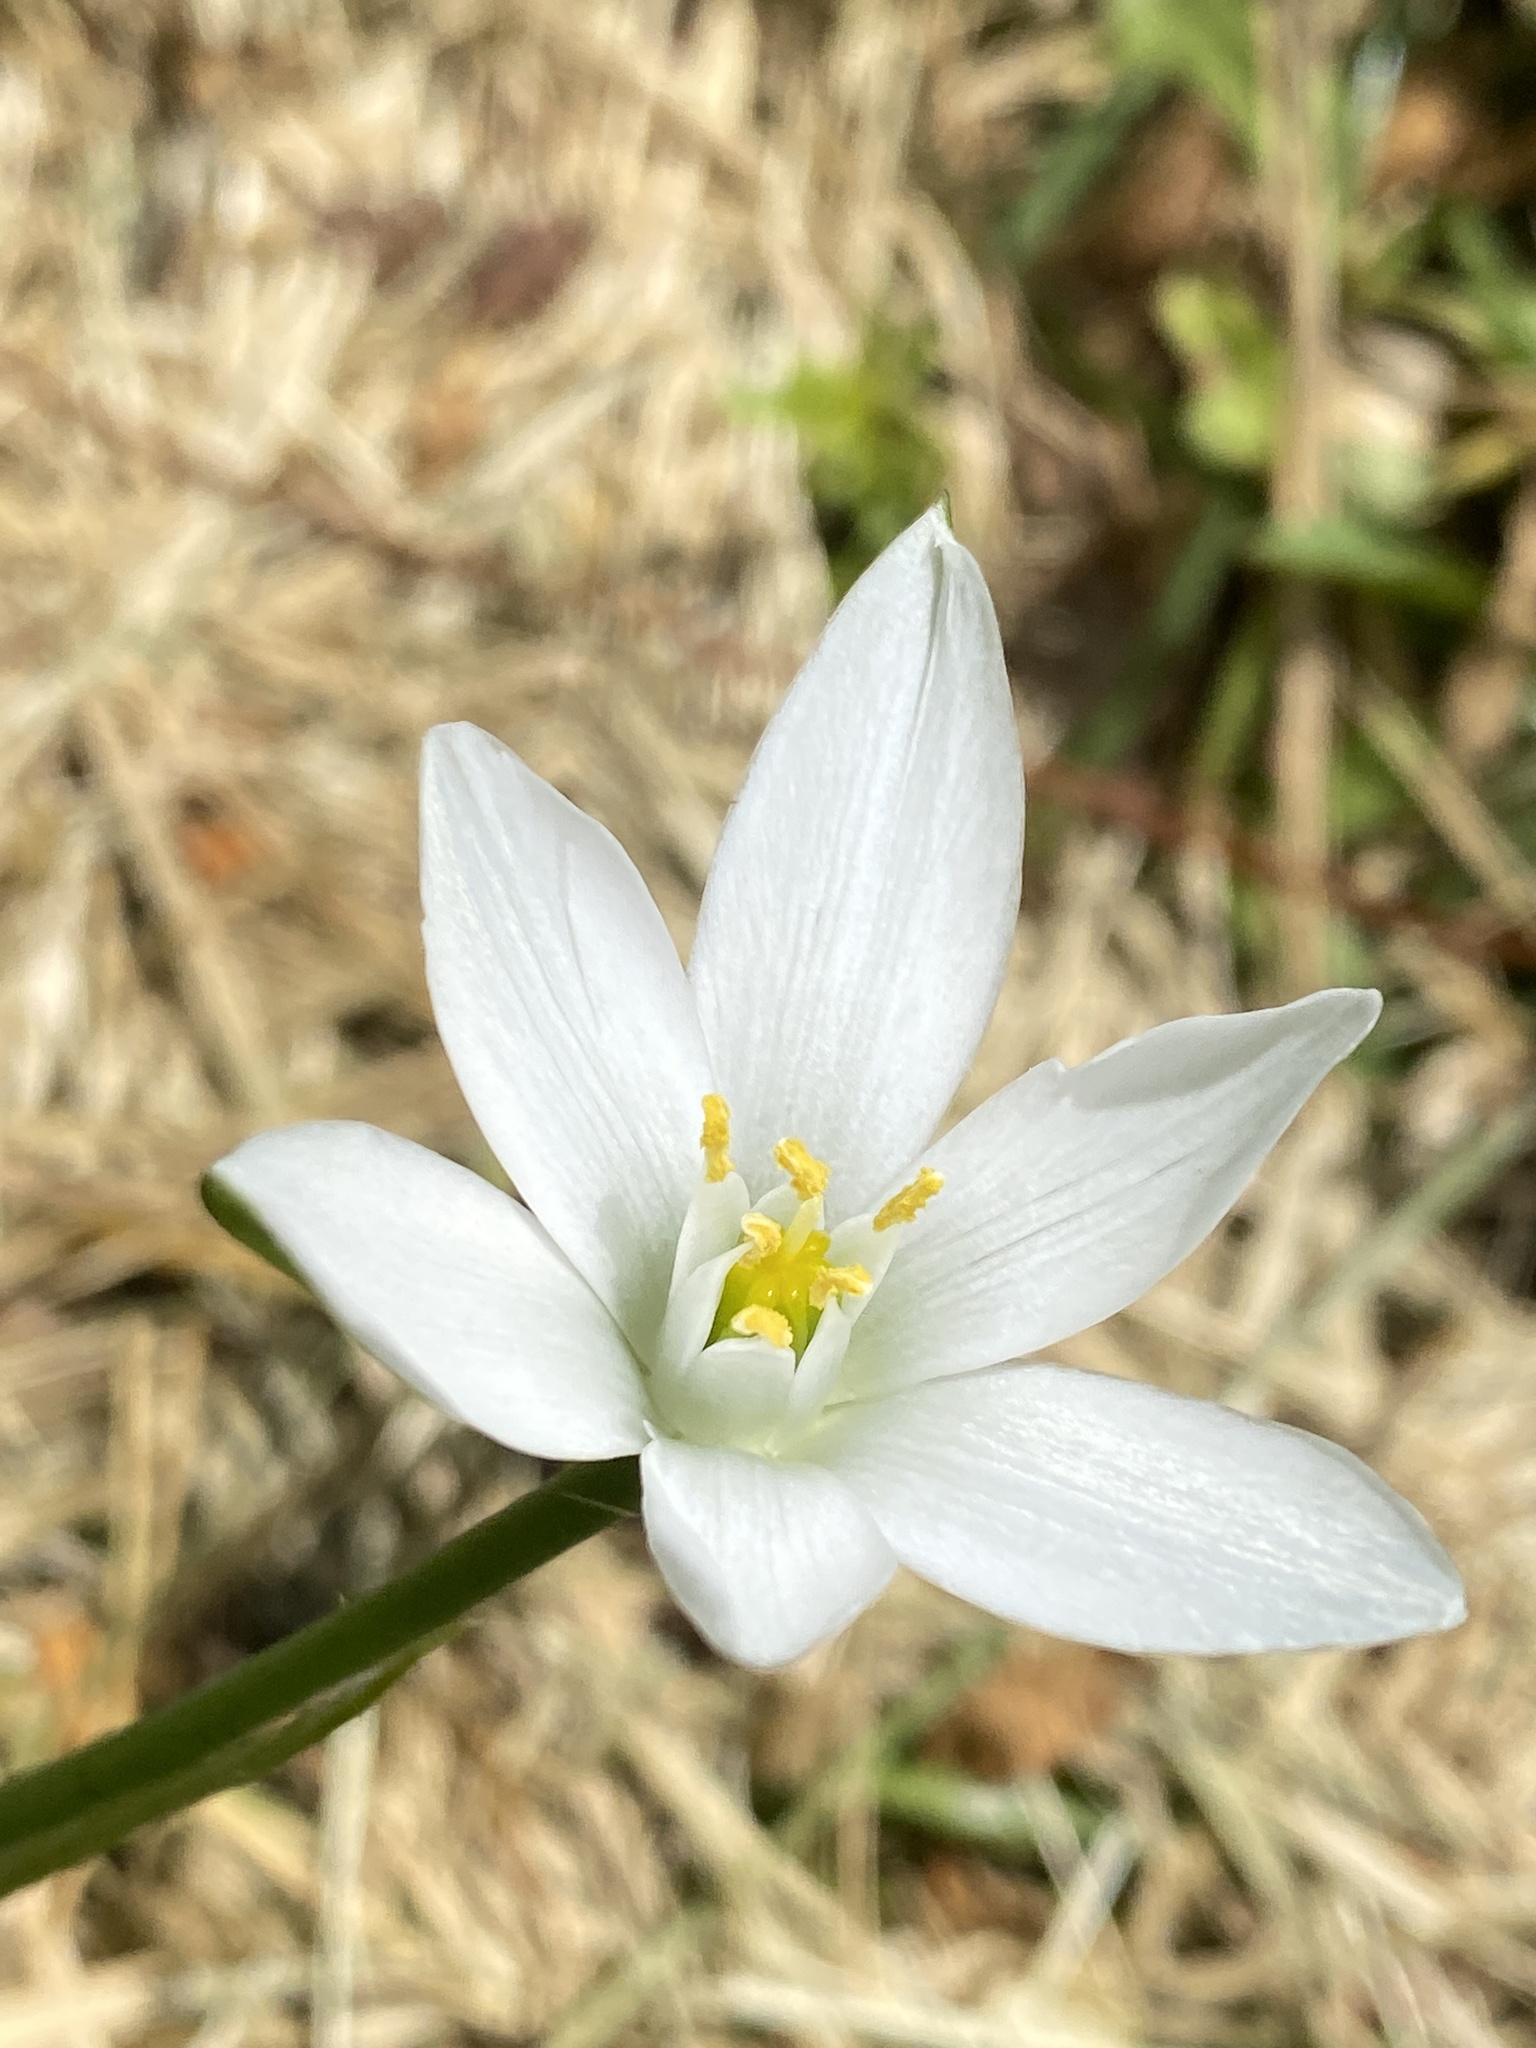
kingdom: Plantae
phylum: Tracheophyta
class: Liliopsida
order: Asparagales
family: Asparagaceae
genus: Ornithogalum
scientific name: Ornithogalum umbellatum
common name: Garden star-of-bethlehem
